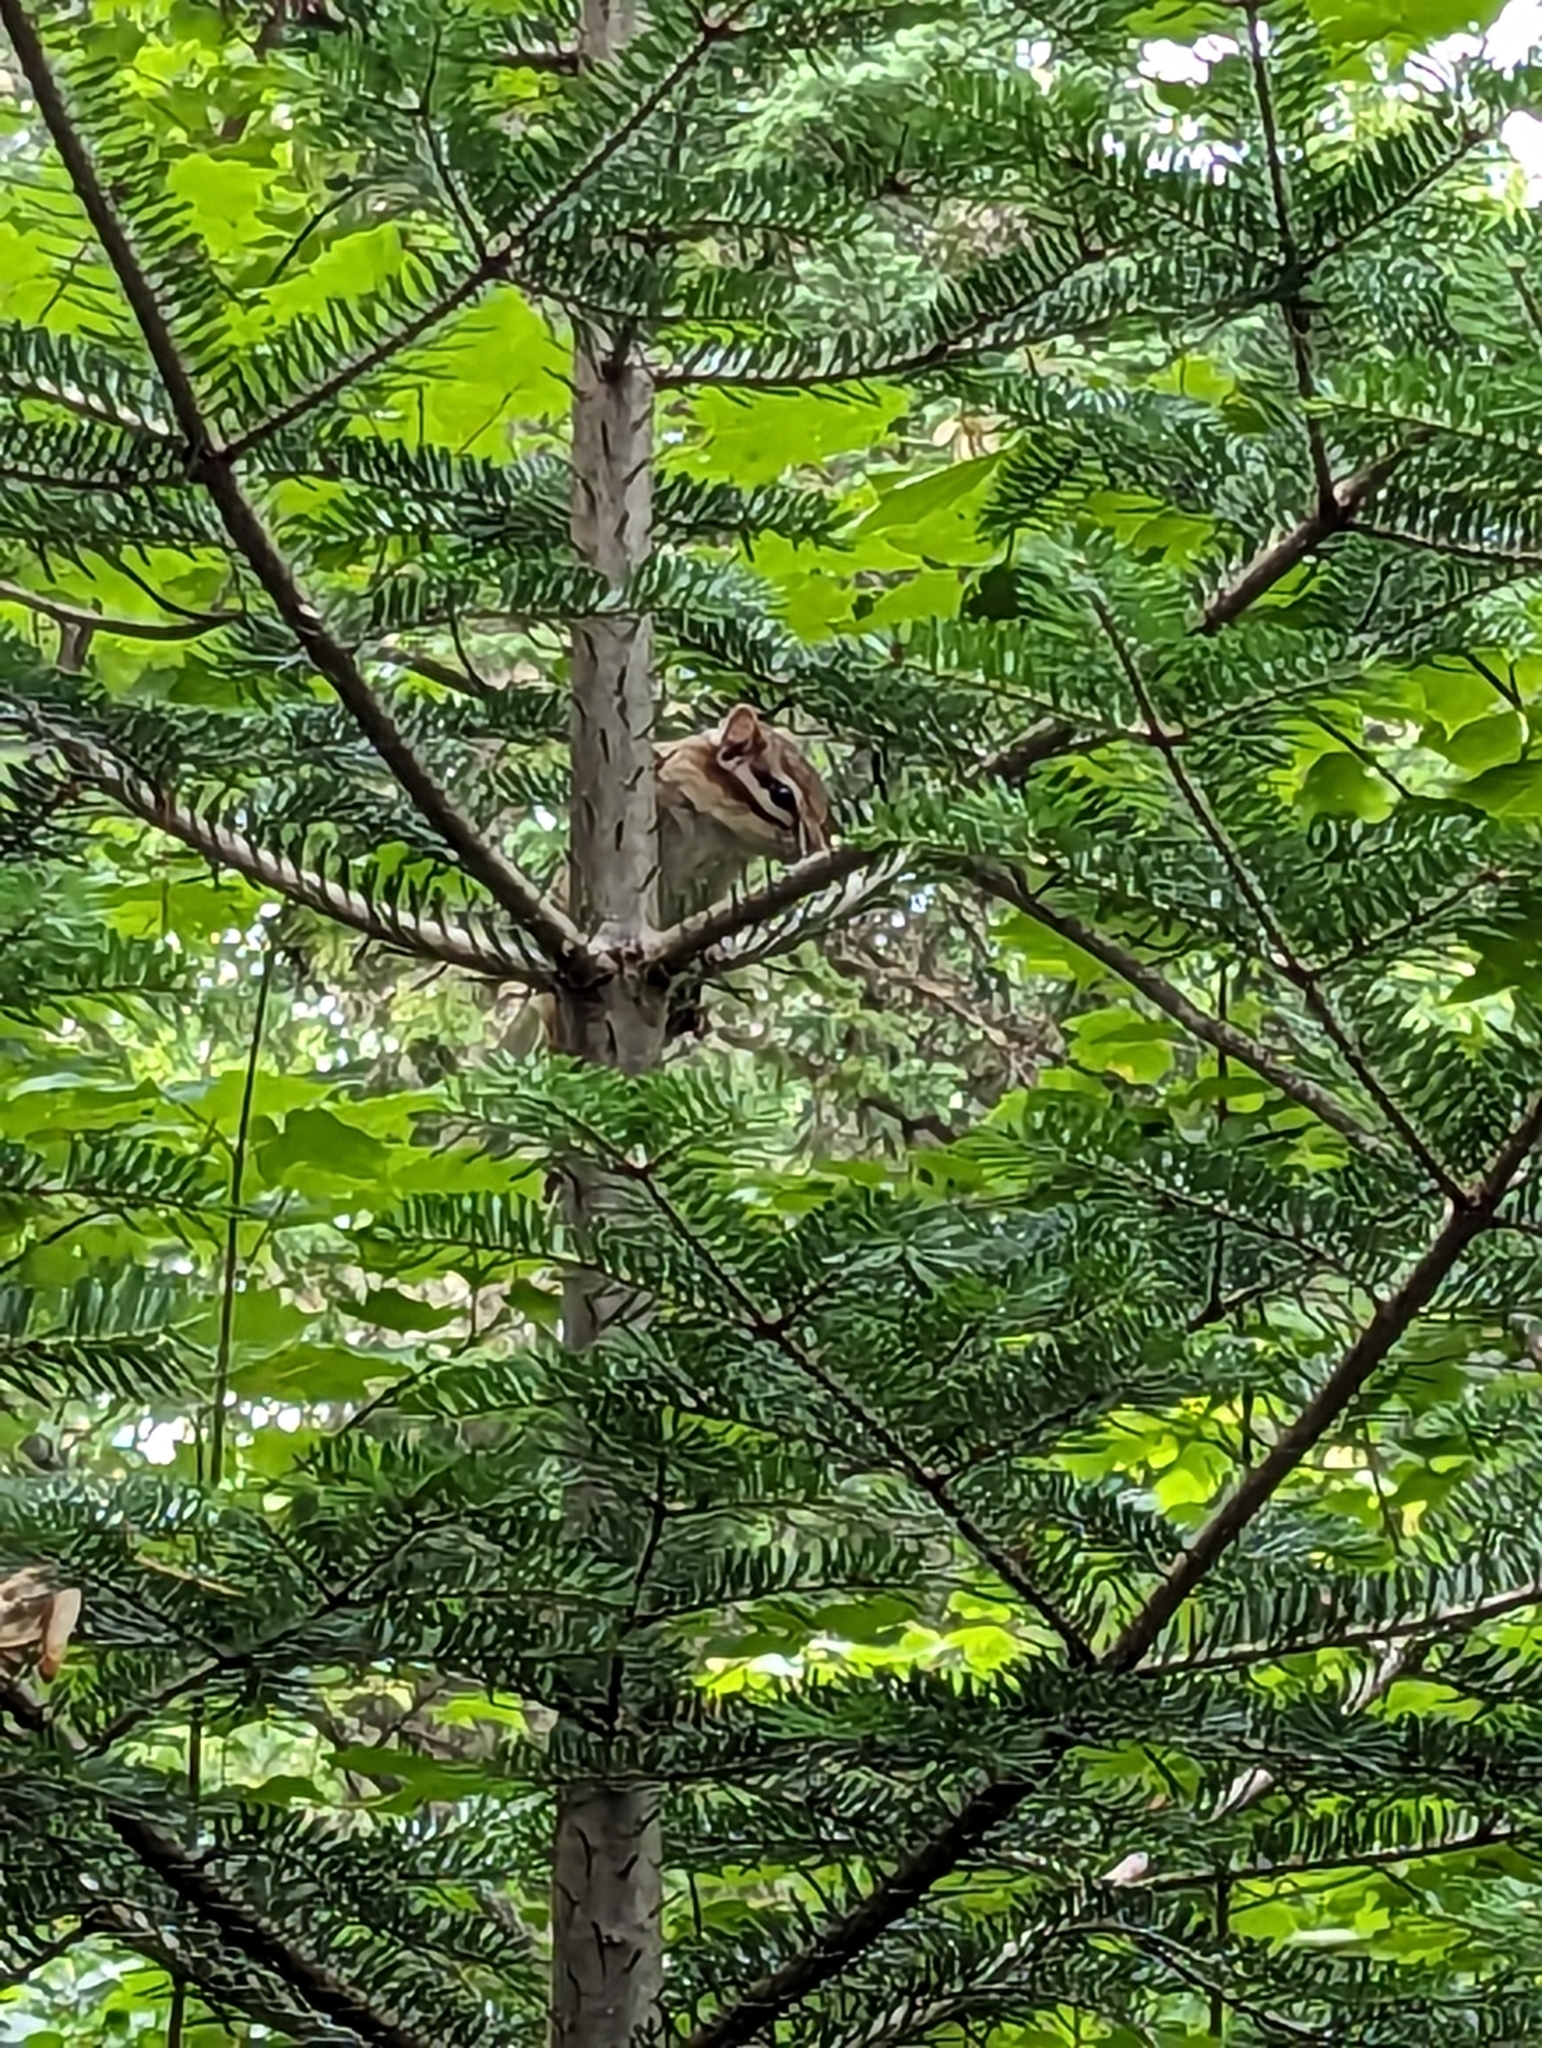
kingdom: Animalia
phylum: Chordata
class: Mammalia
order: Rodentia
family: Sciuridae
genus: Tamias
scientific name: Tamias striatus
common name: Eastern chipmunk
